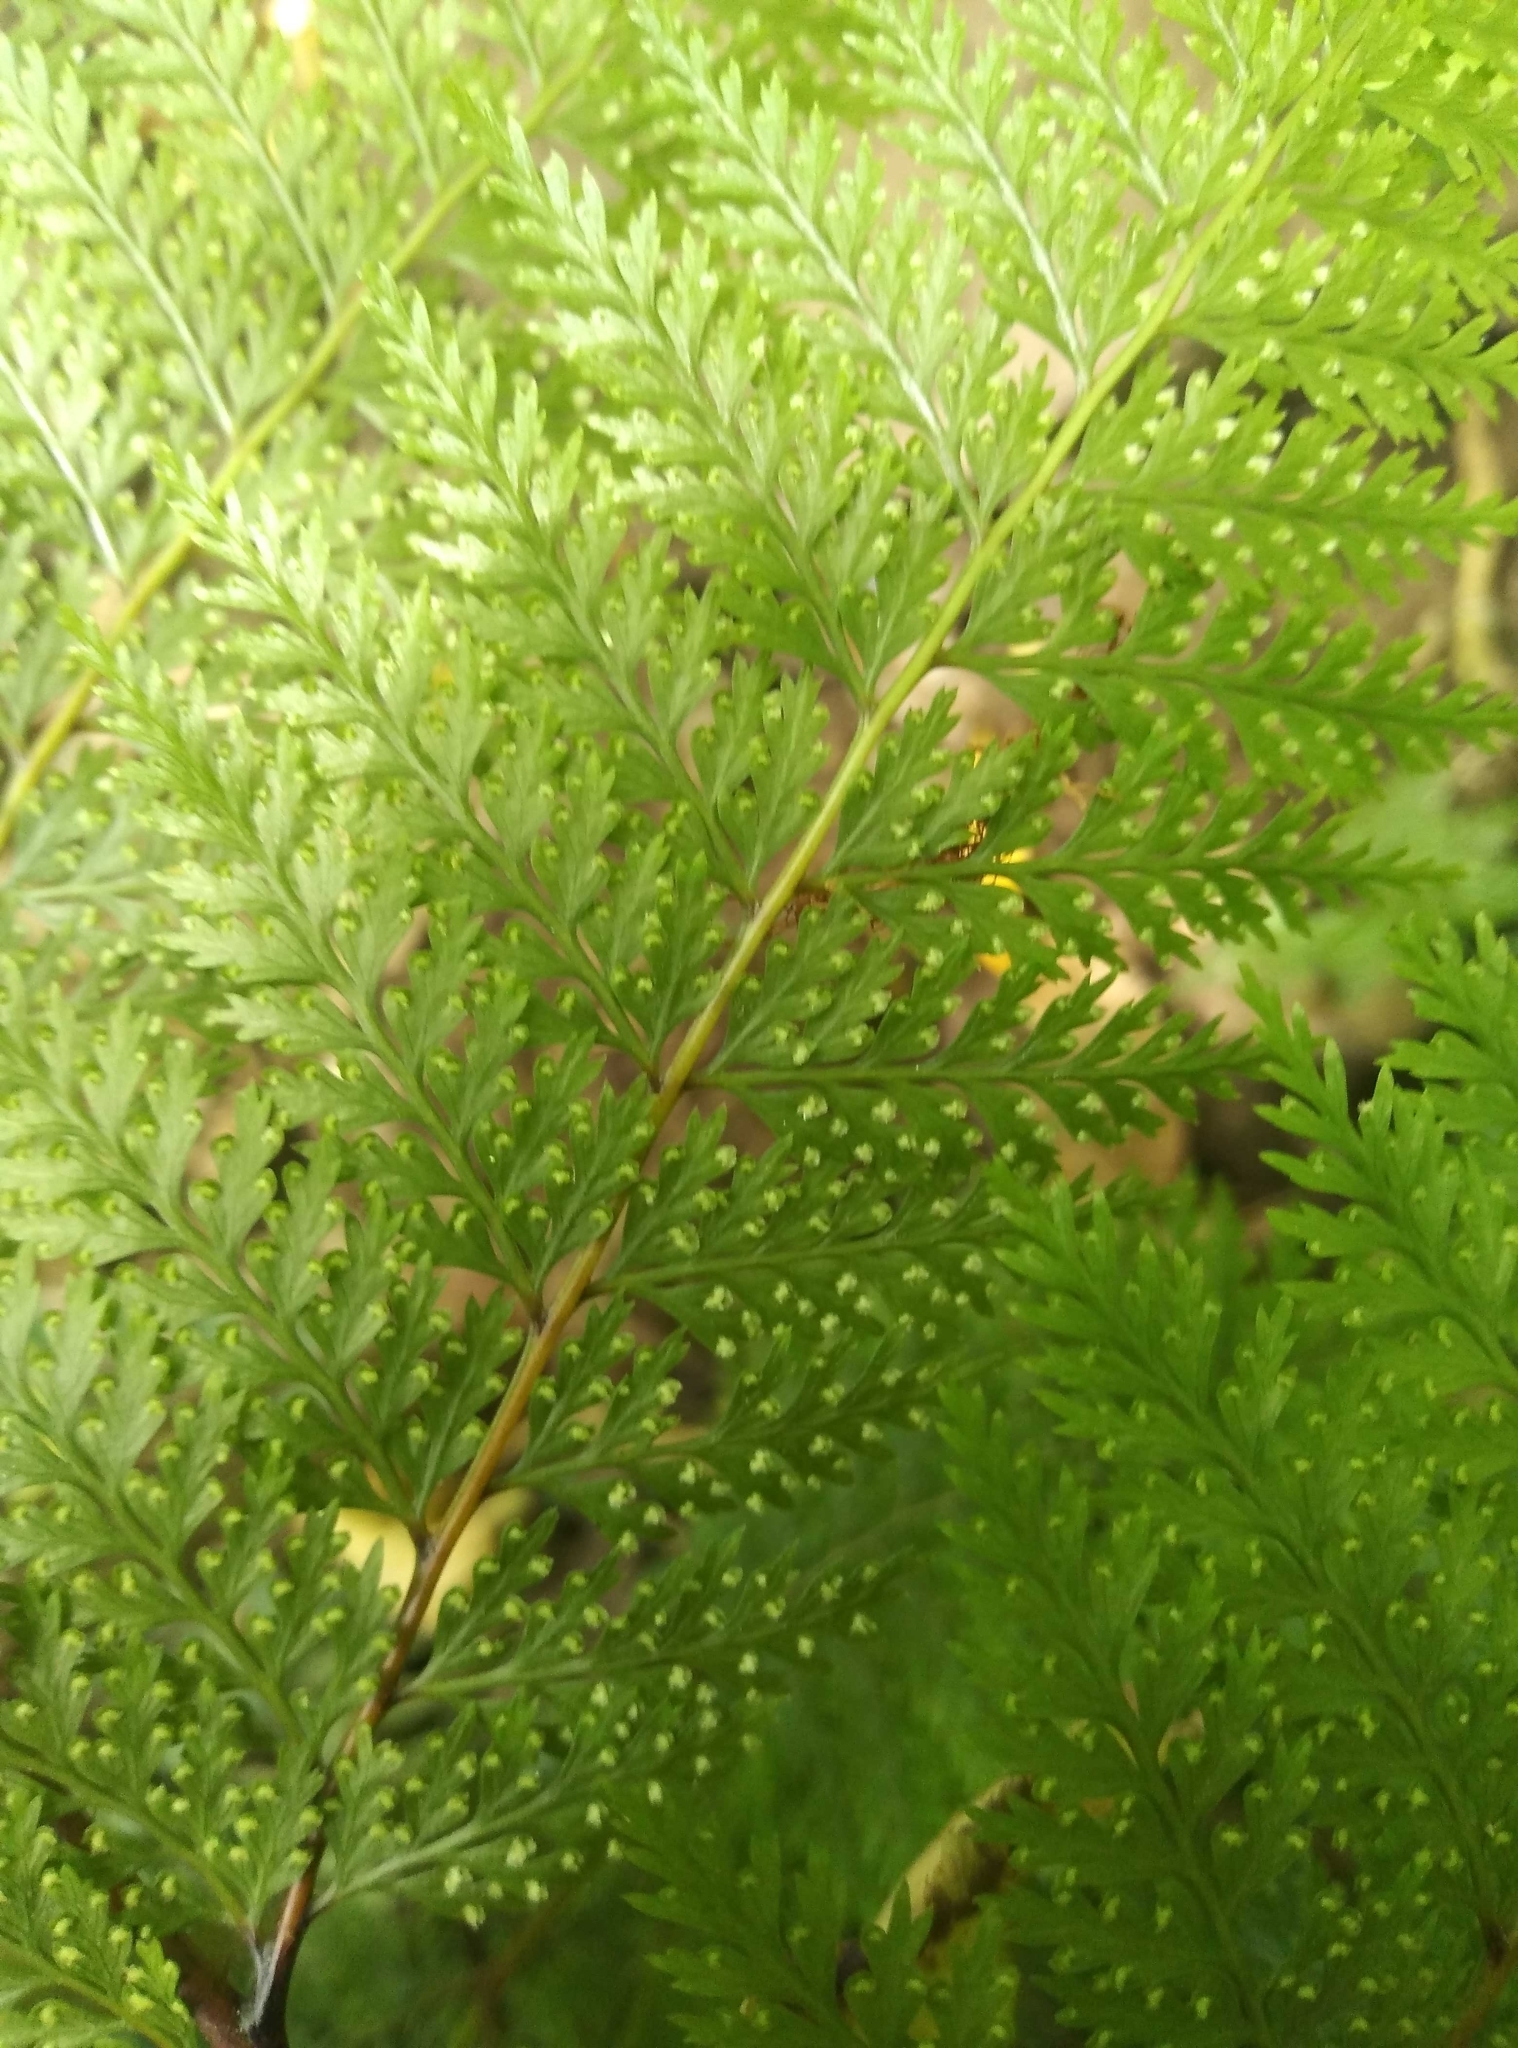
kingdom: Plantae
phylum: Tracheophyta
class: Polypodiopsida
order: Polypodiales
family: Dennstaedtiaceae
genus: Dennstaedtia
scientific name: Dennstaedtia novae-zelandiae
